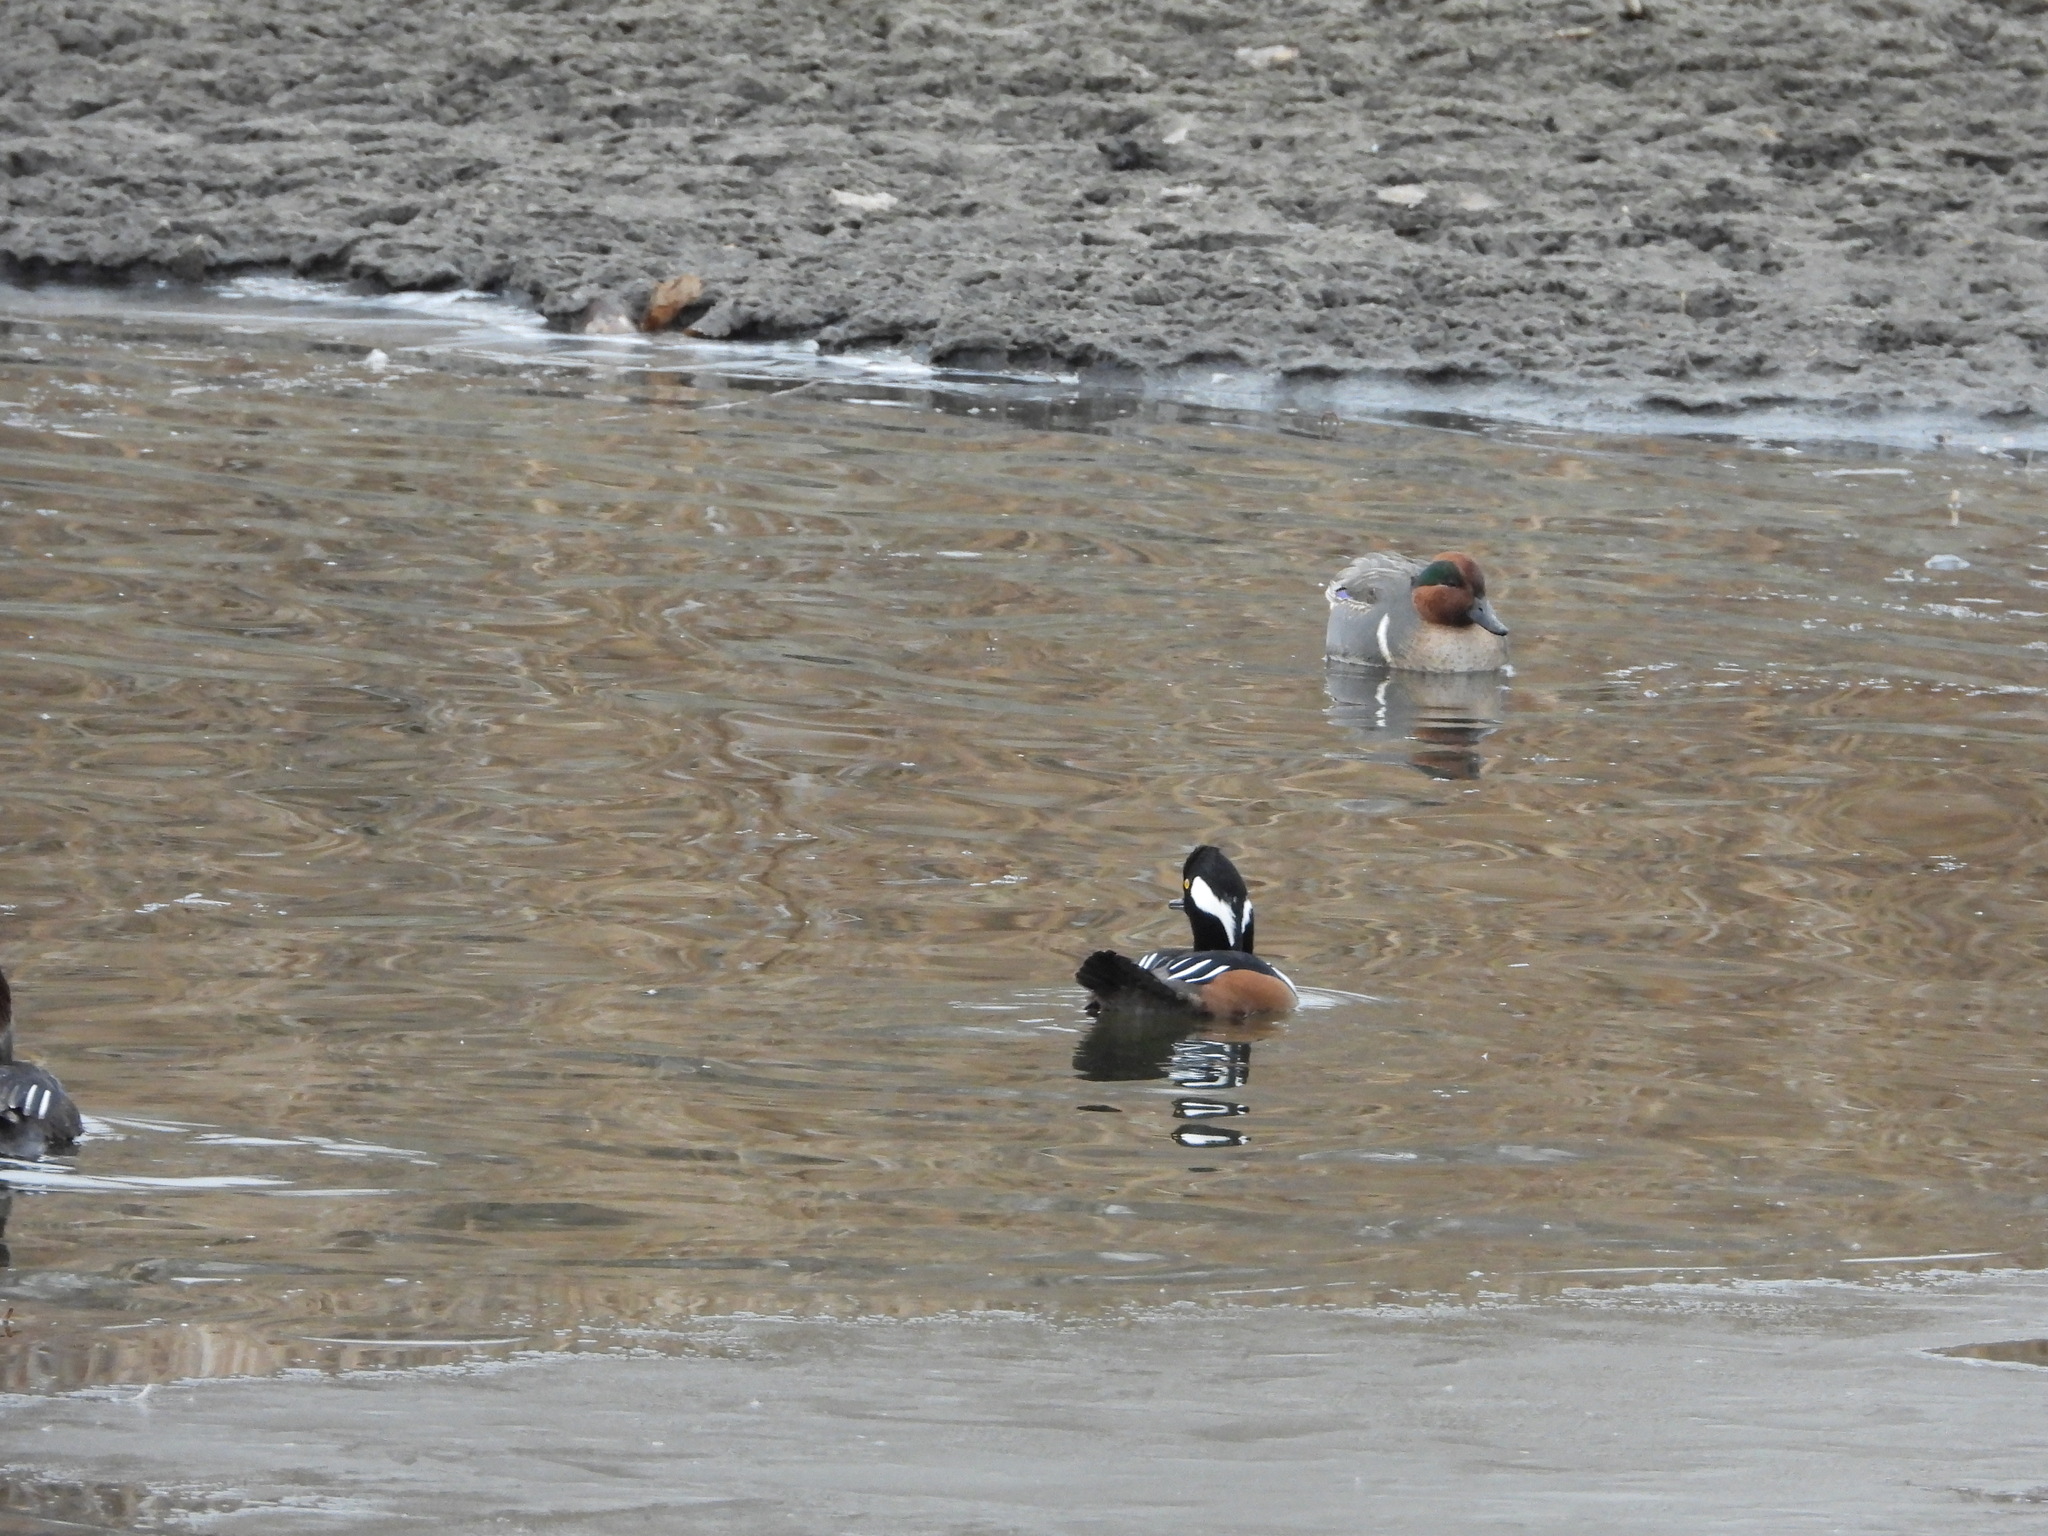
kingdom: Animalia
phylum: Chordata
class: Aves
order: Anseriformes
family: Anatidae
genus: Lophodytes
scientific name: Lophodytes cucullatus
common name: Hooded merganser
